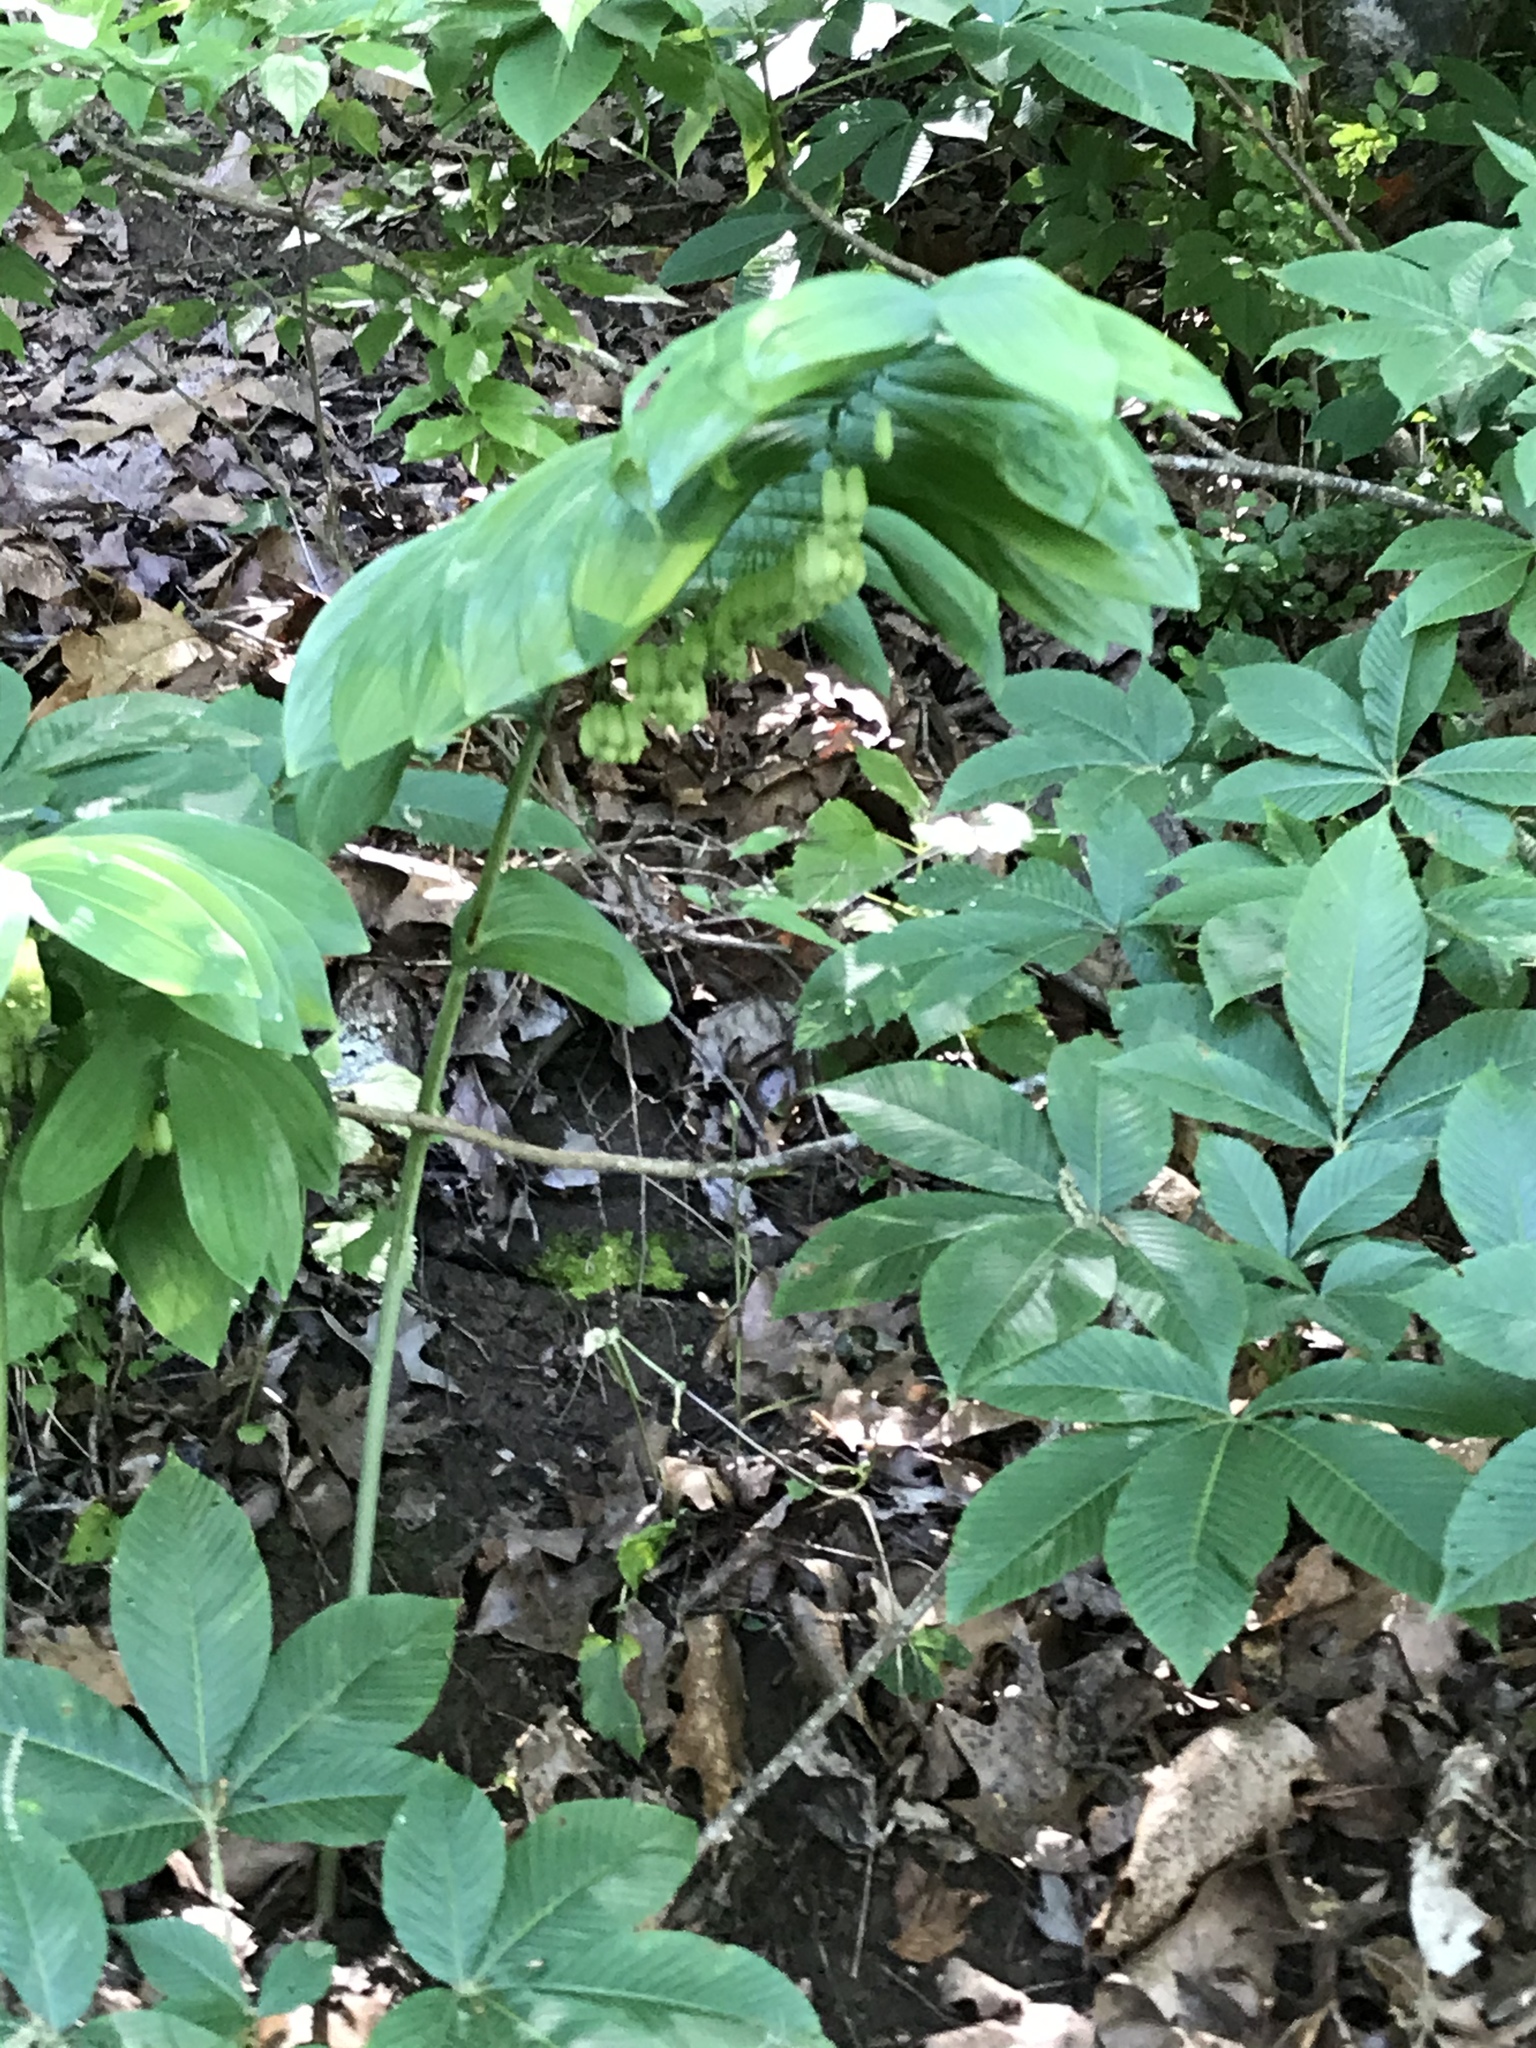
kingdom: Plantae
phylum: Tracheophyta
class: Liliopsida
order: Asparagales
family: Asparagaceae
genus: Polygonatum
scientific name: Polygonatum biflorum
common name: American solomon's-seal
